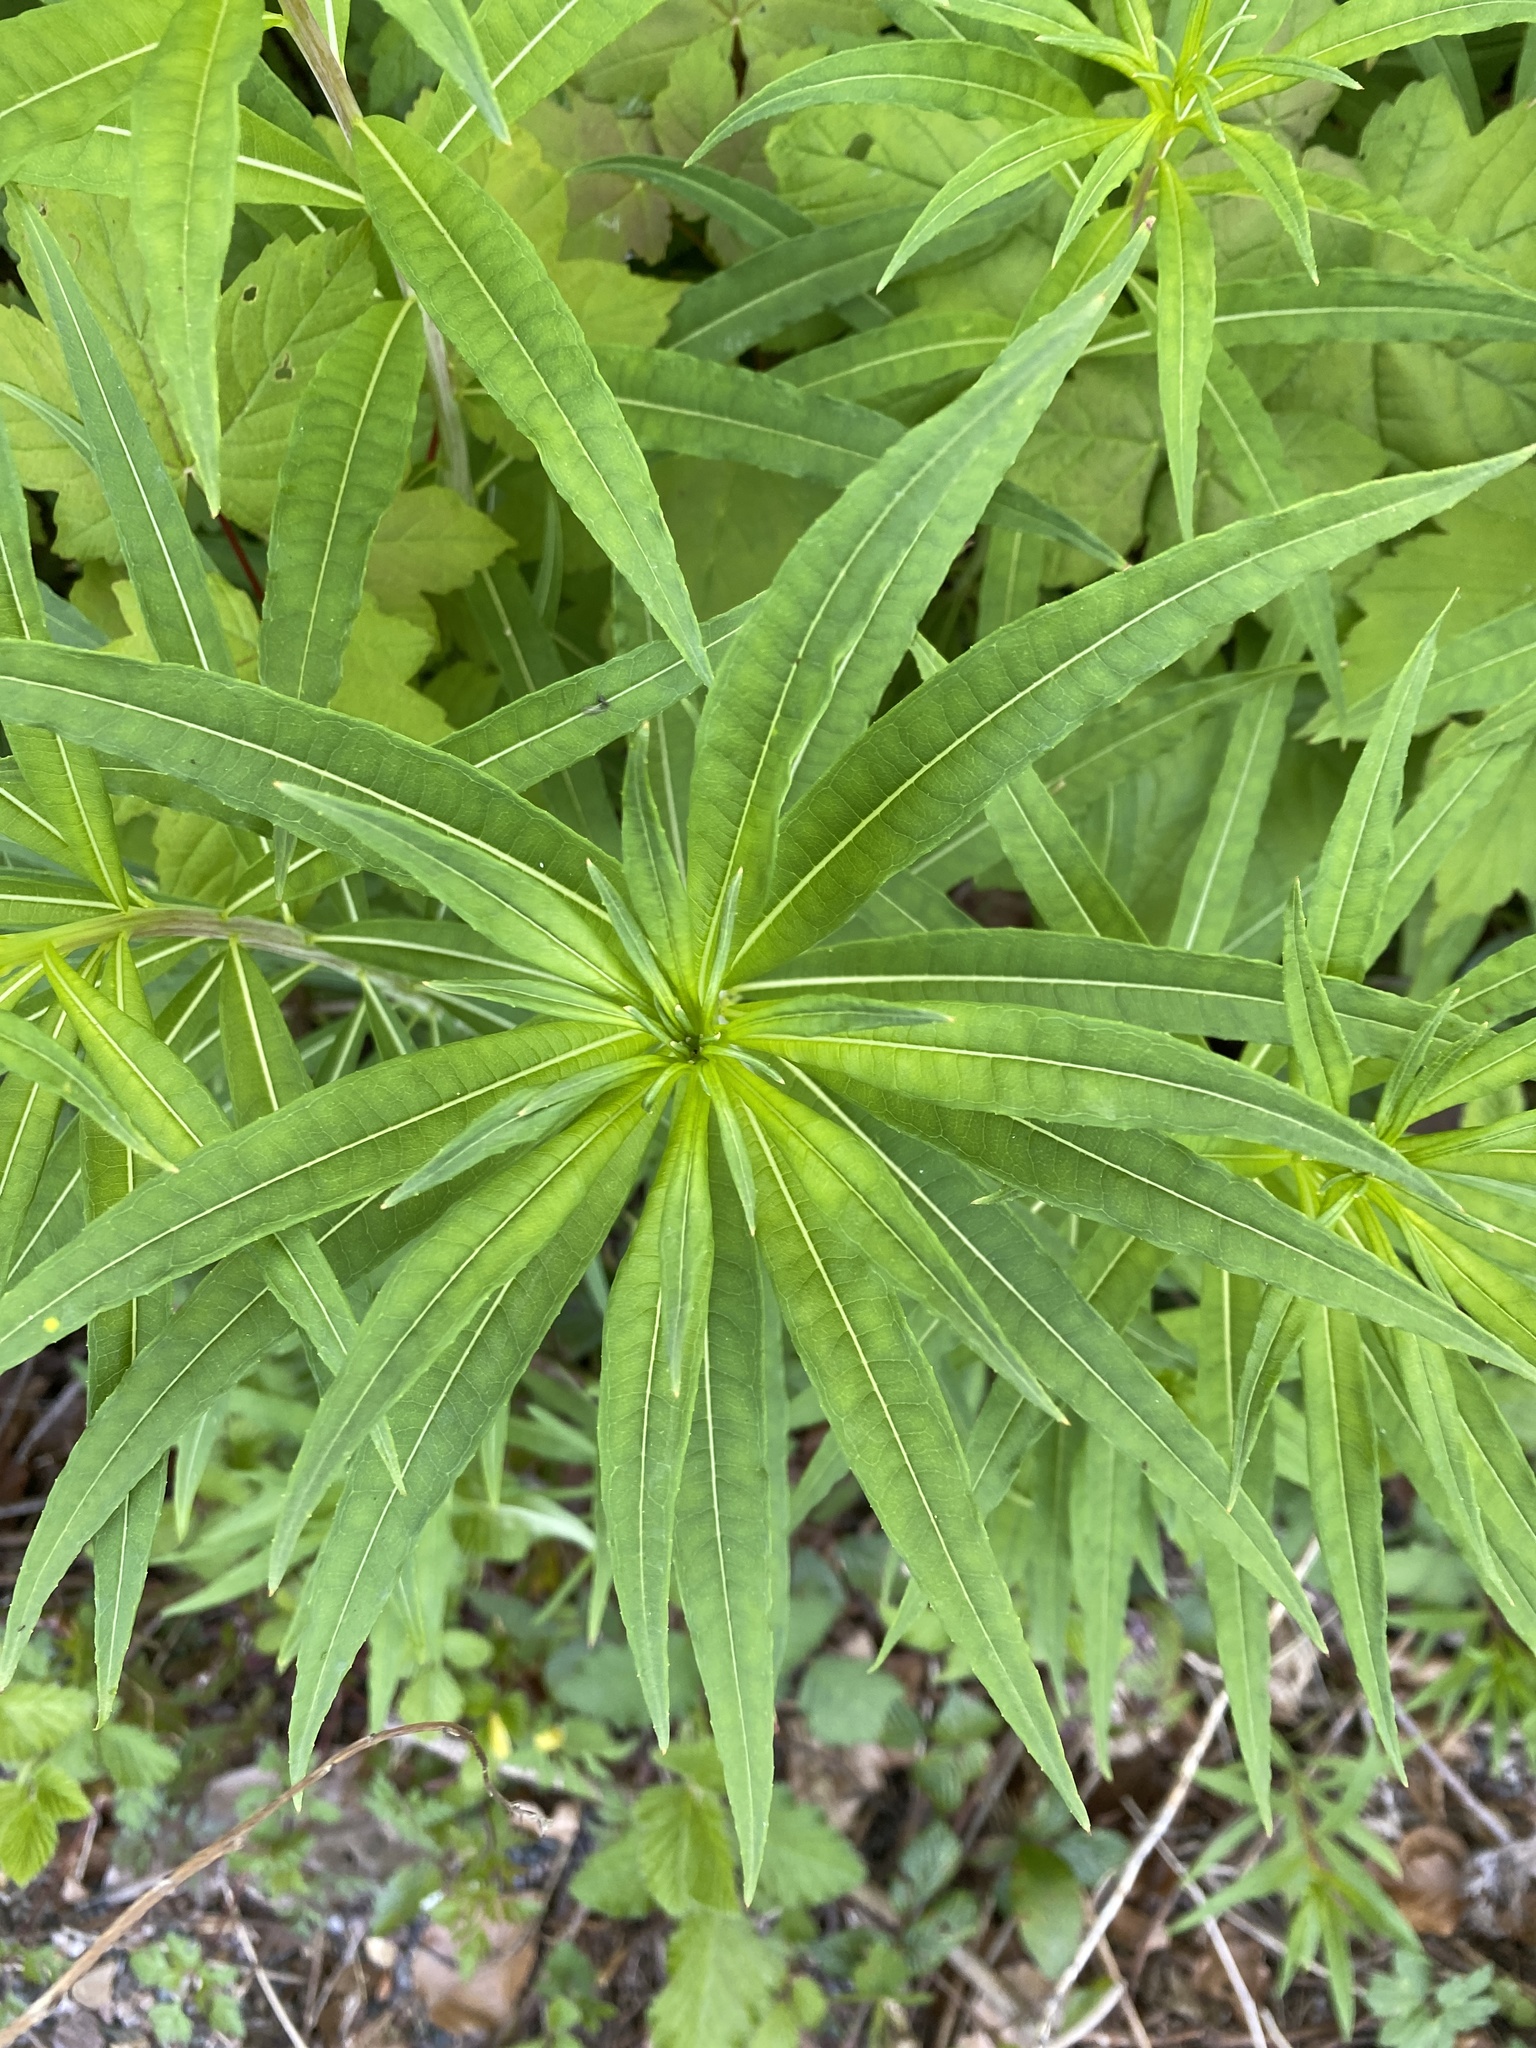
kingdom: Plantae
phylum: Tracheophyta
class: Magnoliopsida
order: Myrtales
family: Onagraceae
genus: Chamaenerion
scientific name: Chamaenerion angustifolium
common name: Fireweed
